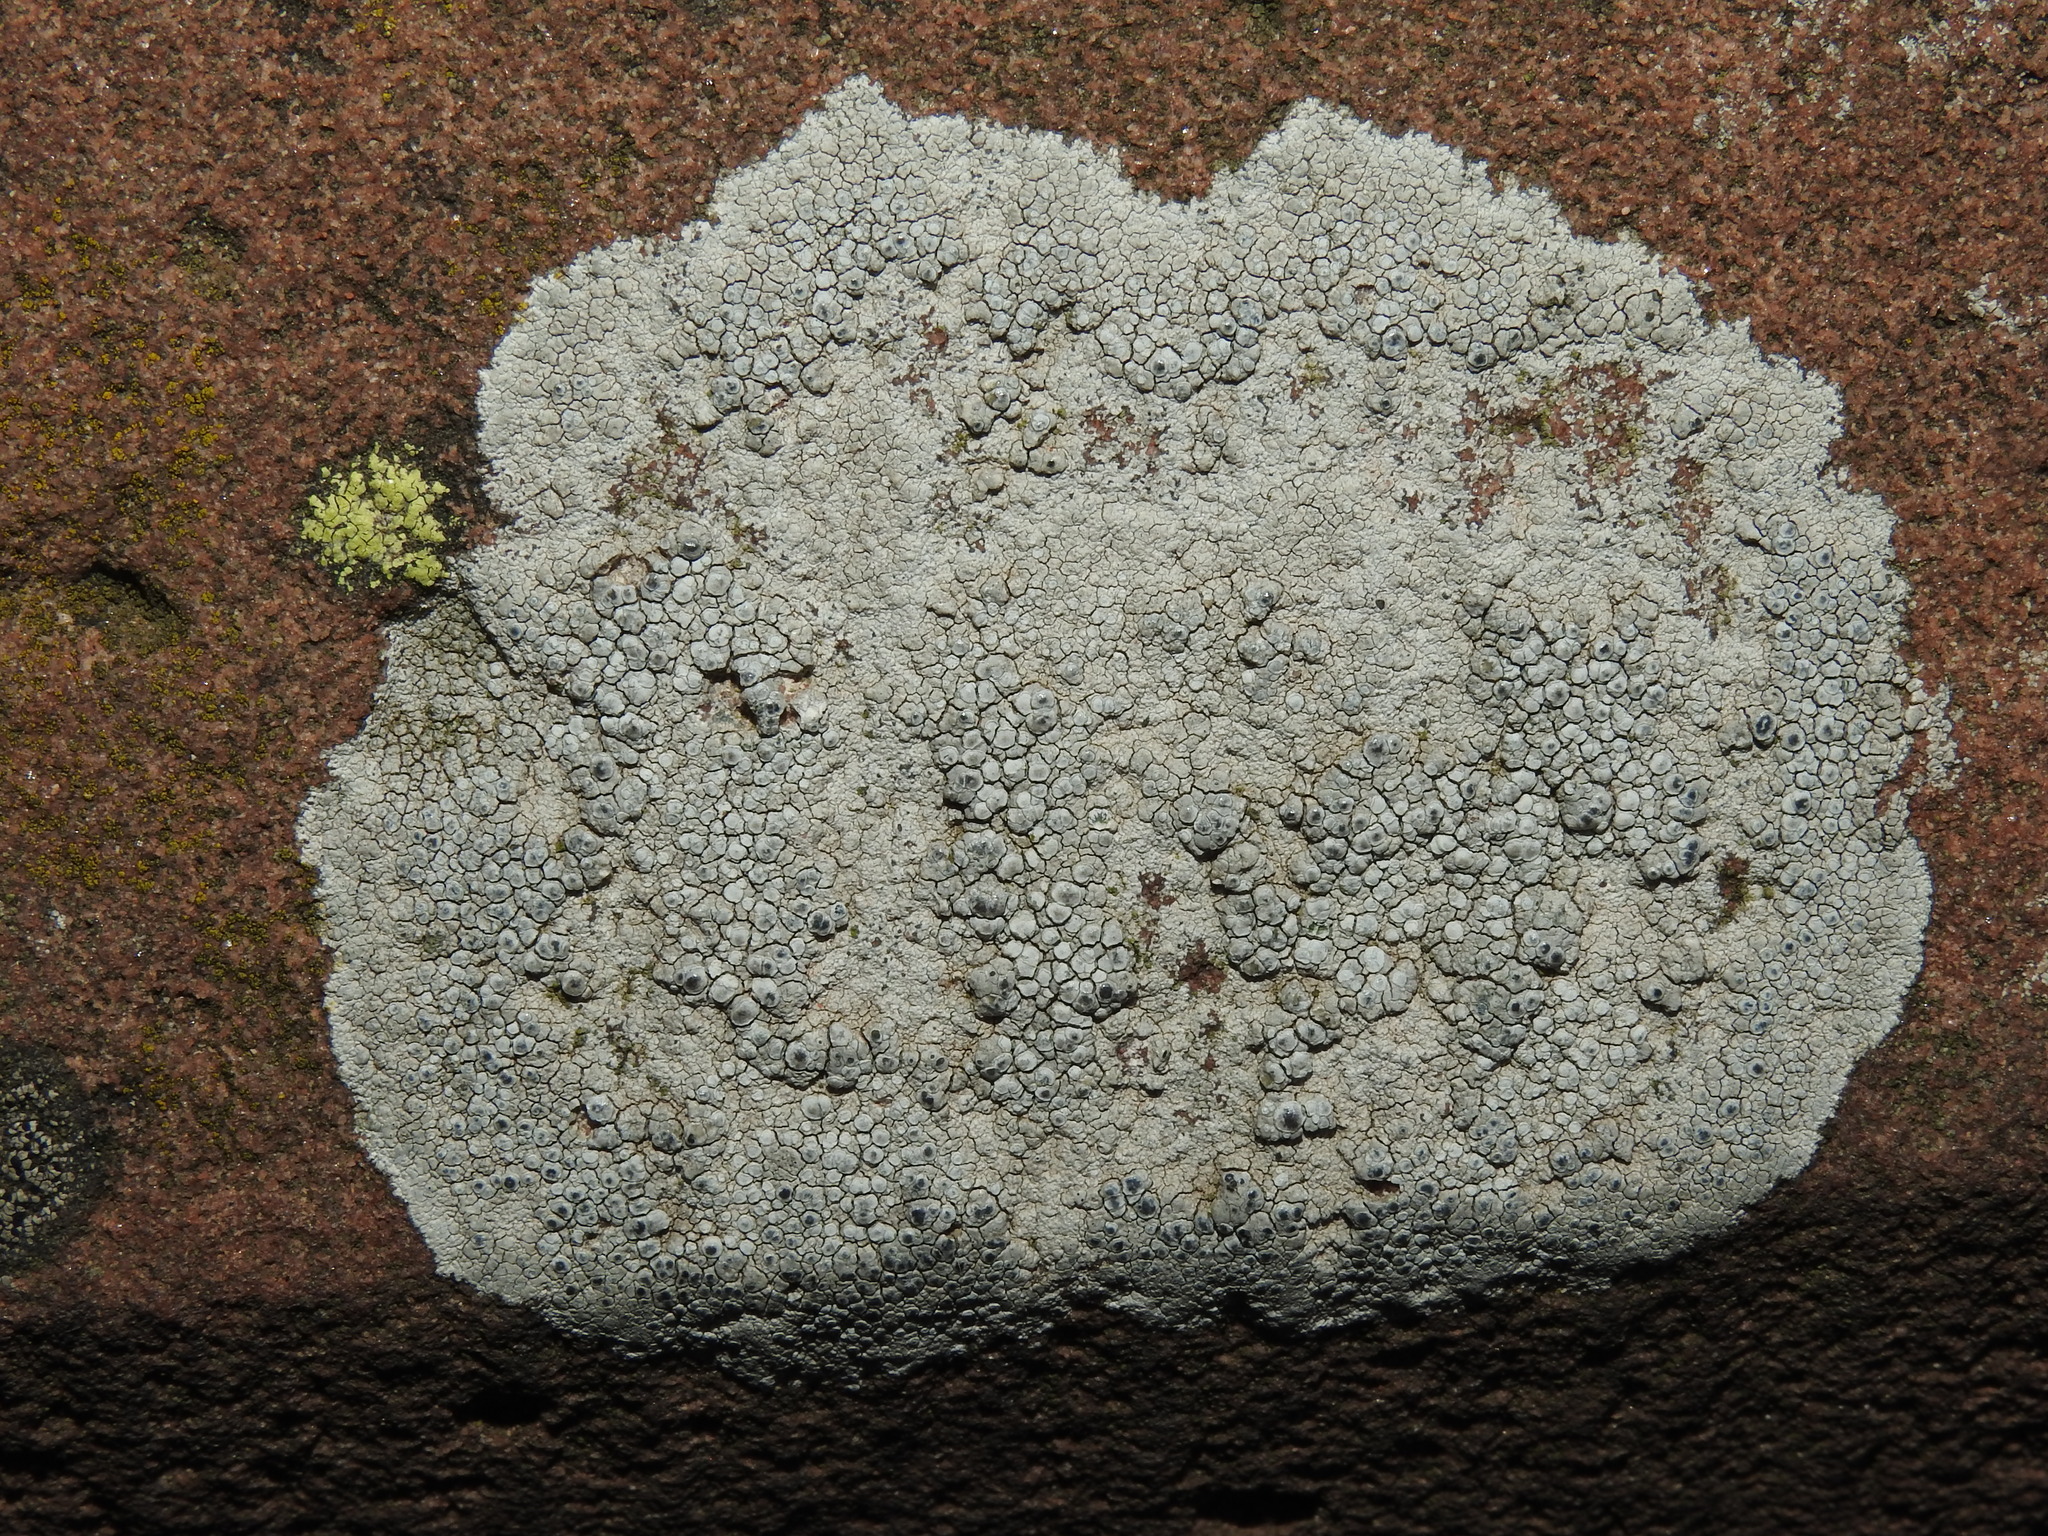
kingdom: Fungi
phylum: Ascomycota
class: Lecanoromycetes
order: Lecanorales
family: Lecanoraceae
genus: Glaucomaria
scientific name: Glaucomaria rupicola
